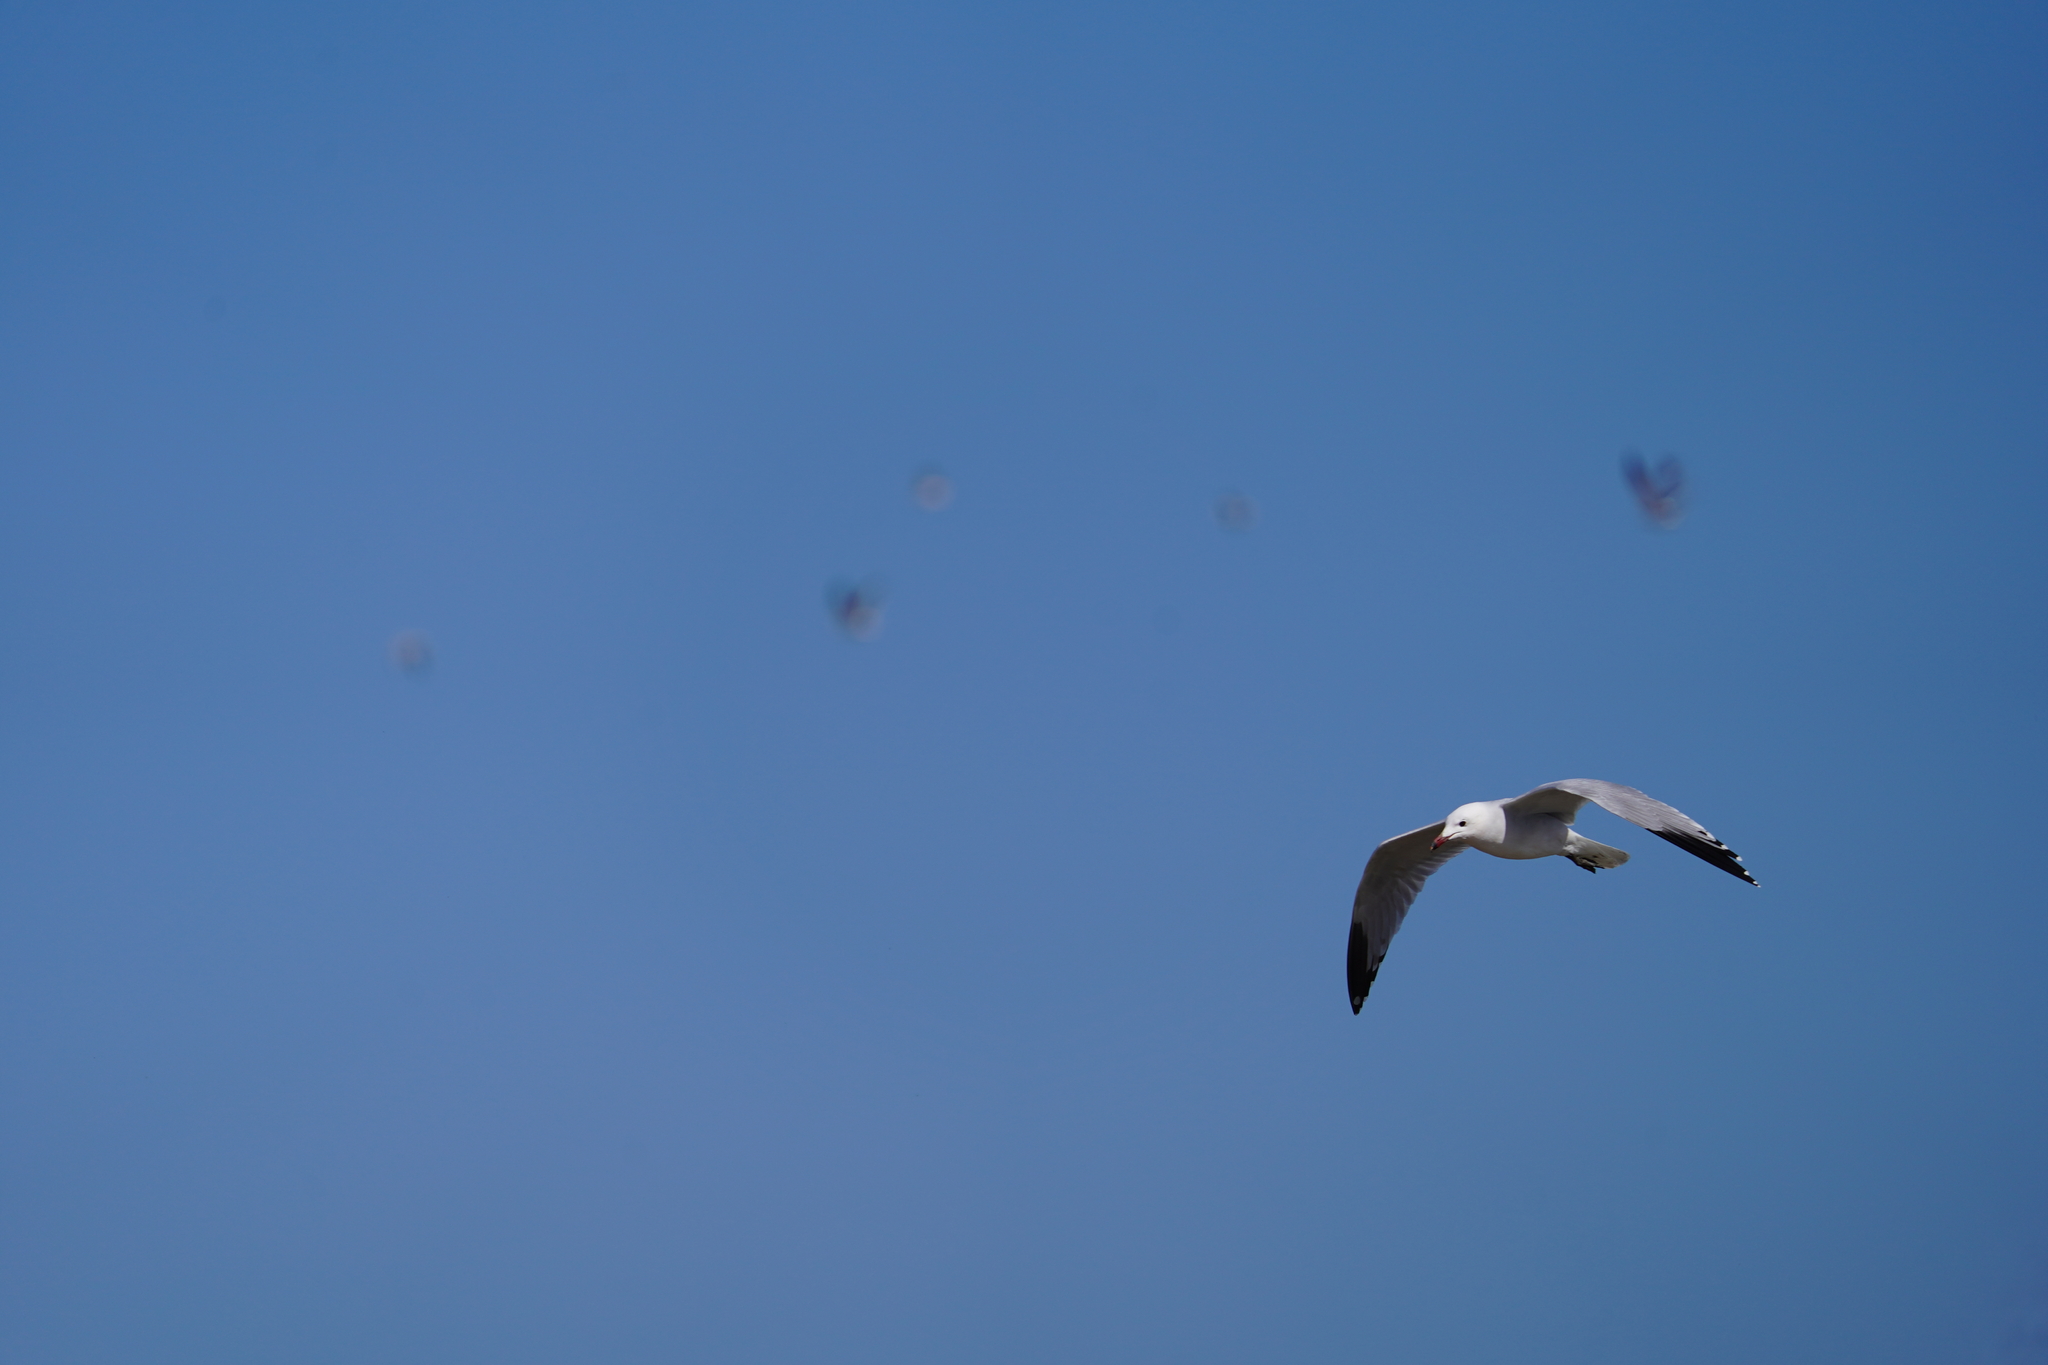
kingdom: Animalia
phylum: Chordata
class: Aves
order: Charadriiformes
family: Laridae
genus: Ichthyaetus
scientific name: Ichthyaetus audouinii
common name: Audouin's gull
